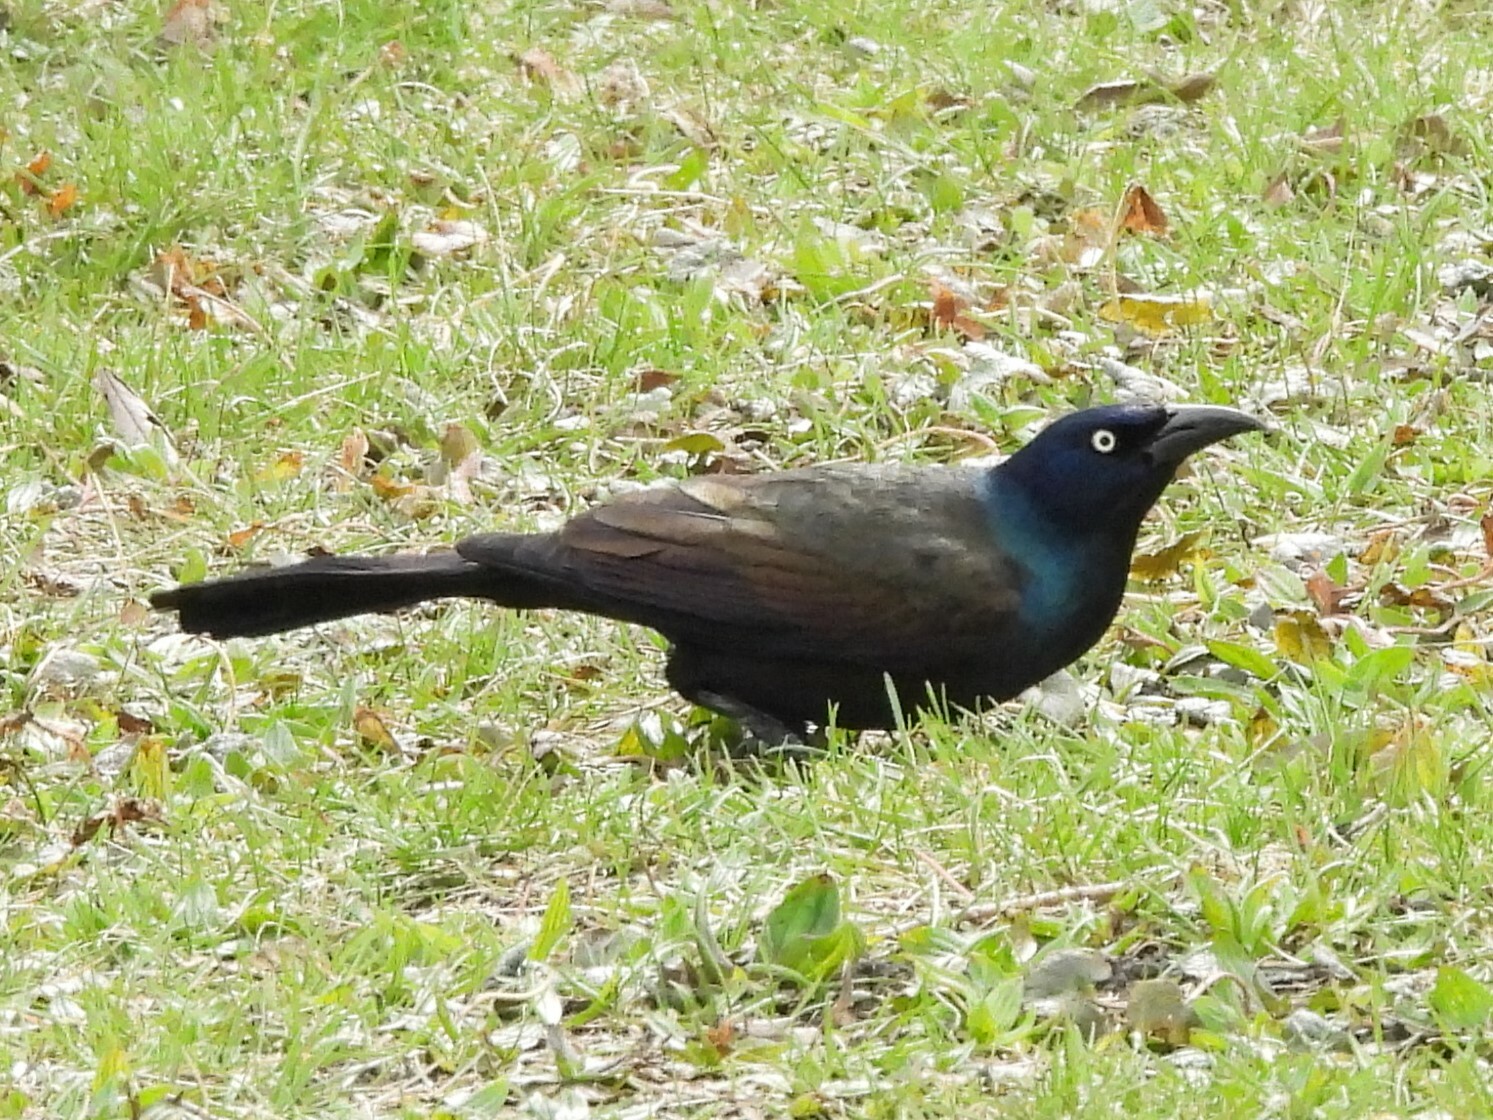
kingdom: Animalia
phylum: Chordata
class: Aves
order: Passeriformes
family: Icteridae
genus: Quiscalus
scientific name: Quiscalus quiscula
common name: Common grackle
